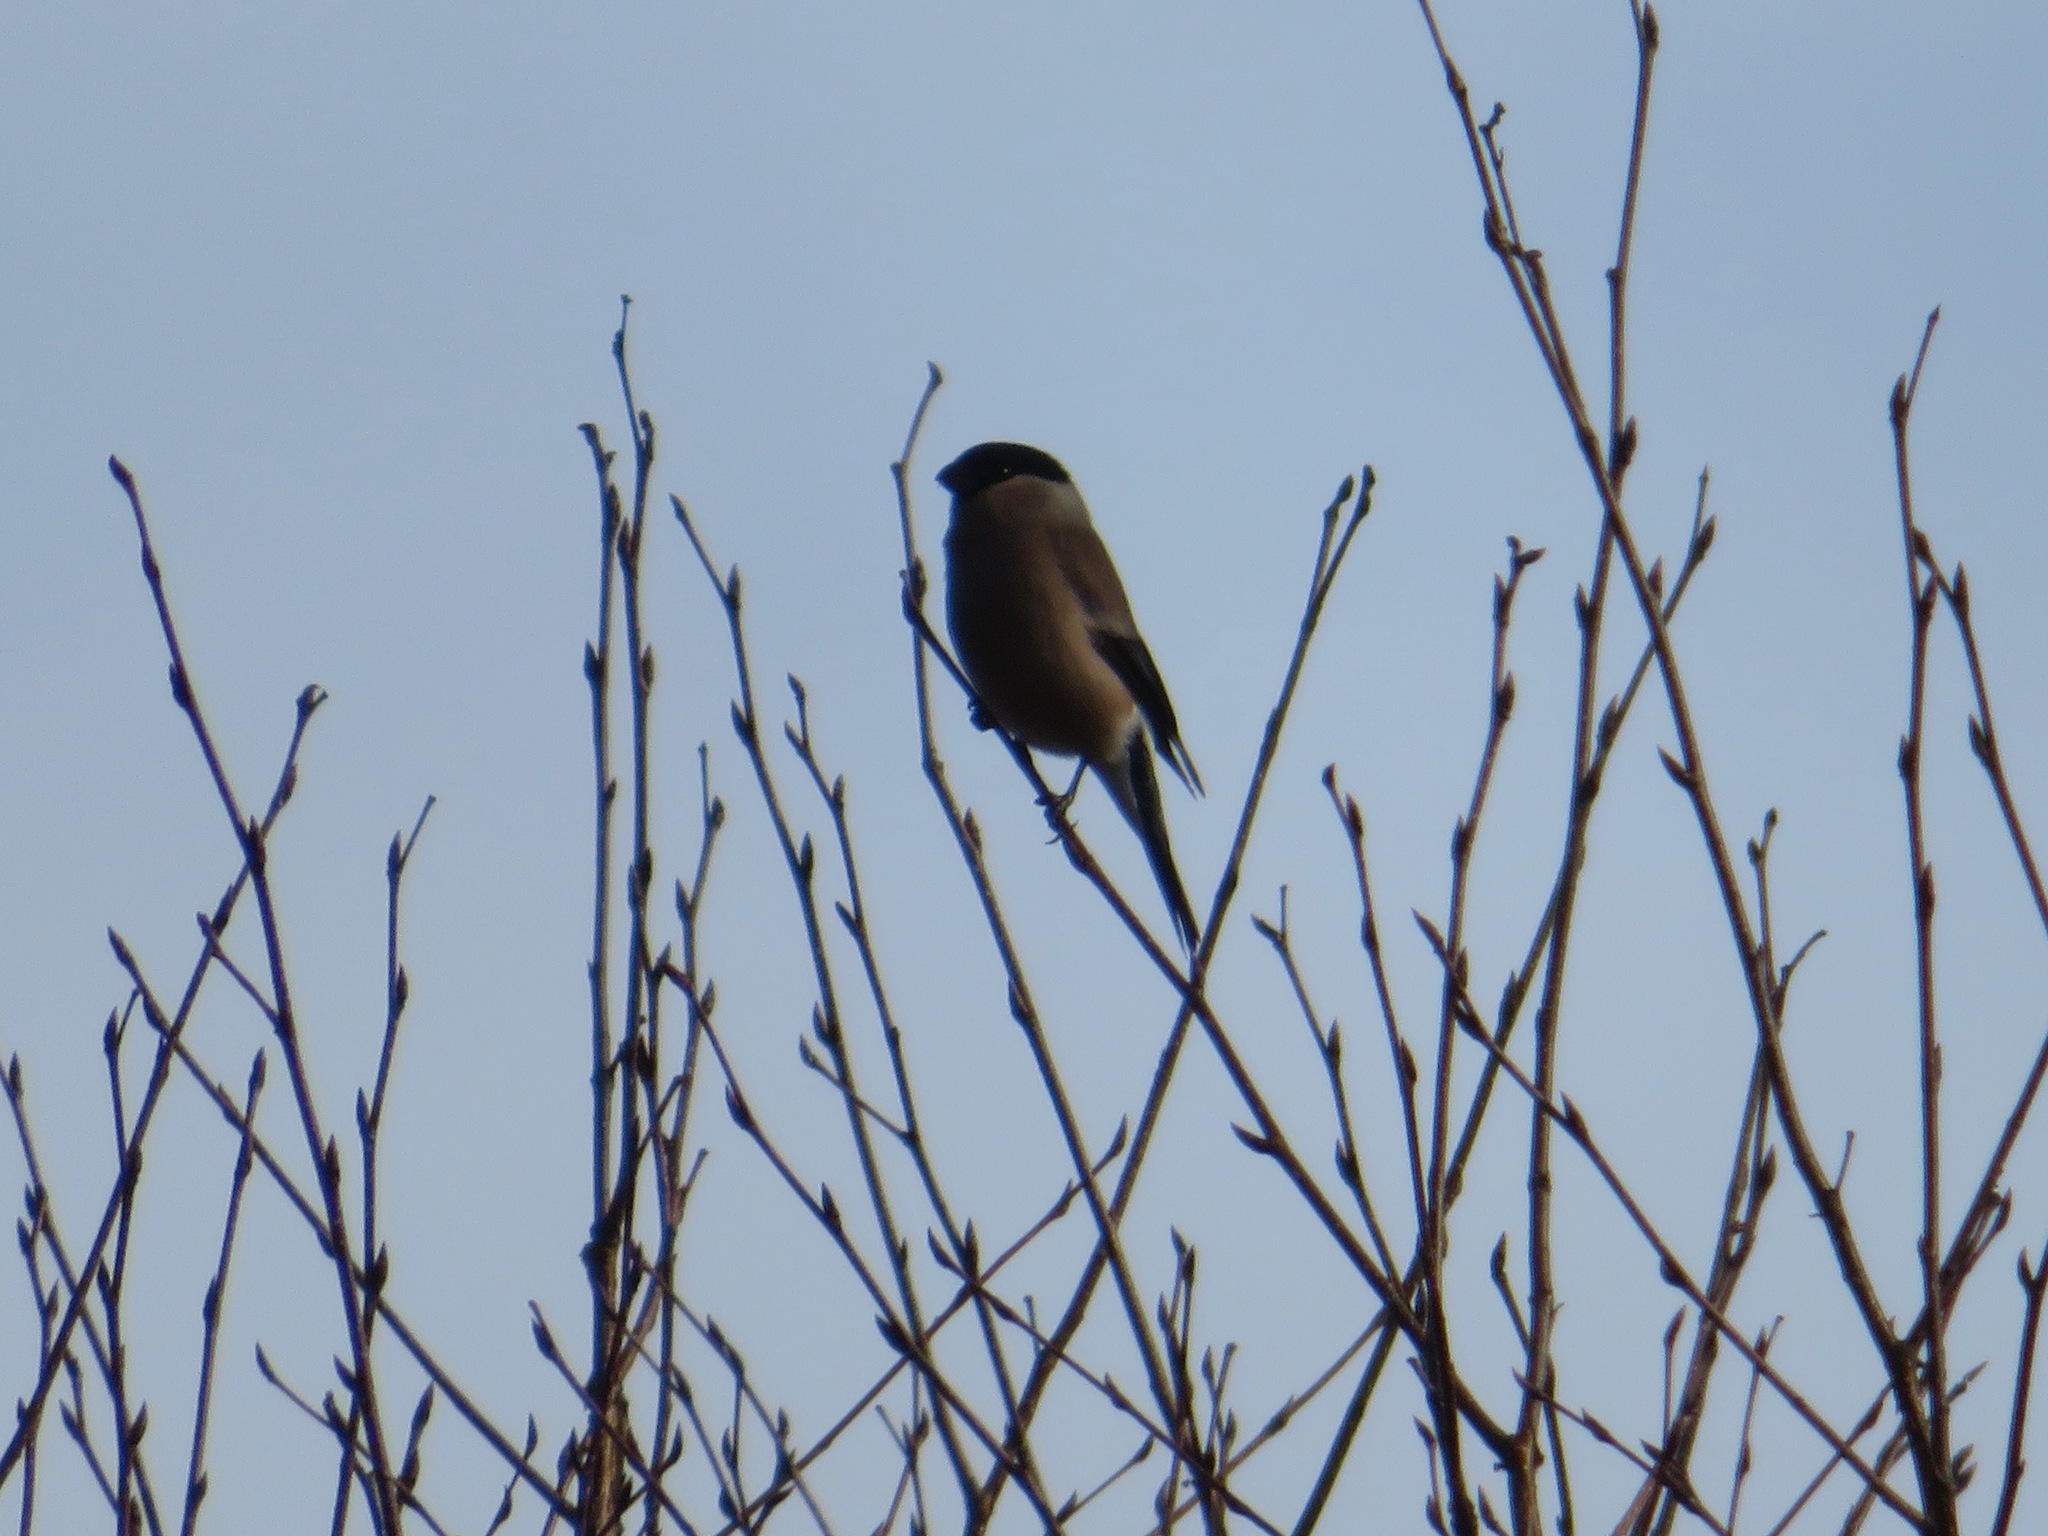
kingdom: Animalia
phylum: Chordata
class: Aves
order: Passeriformes
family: Fringillidae
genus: Pyrrhula
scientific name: Pyrrhula pyrrhula
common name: Eurasian bullfinch
